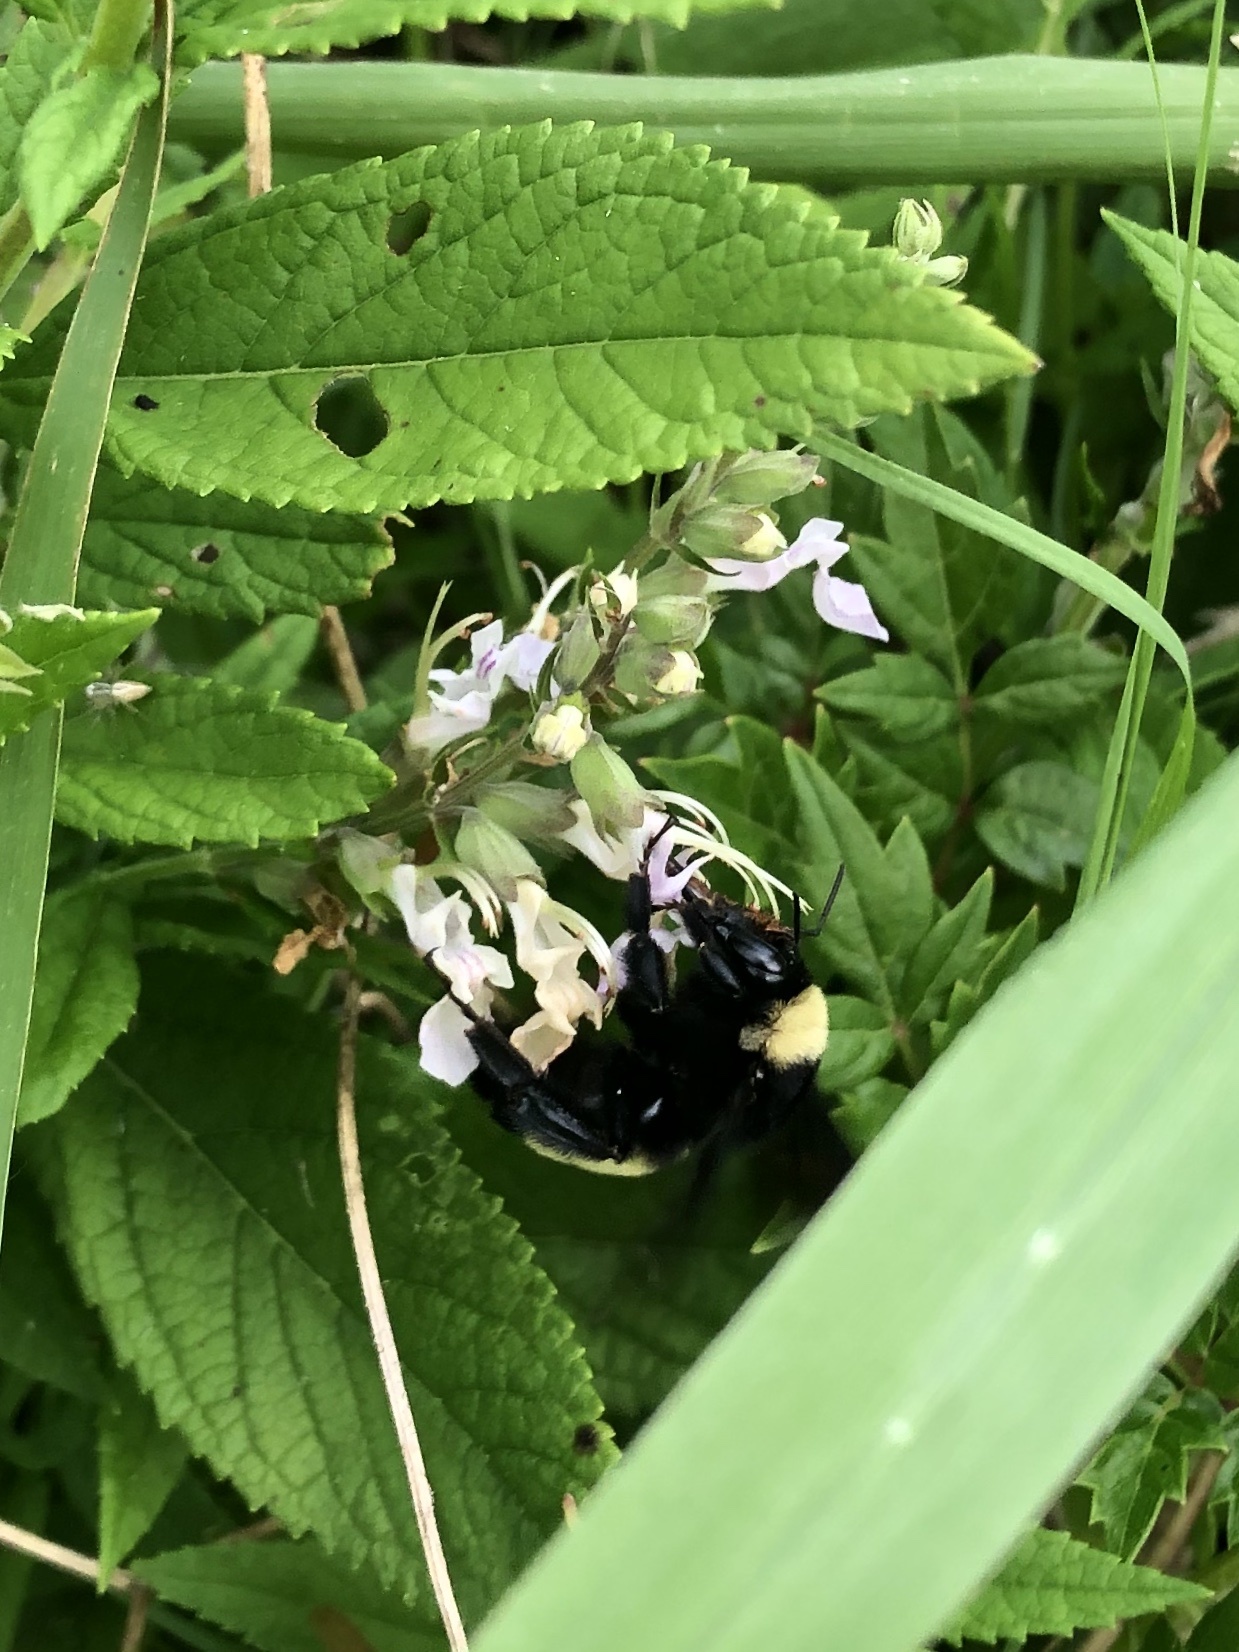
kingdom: Animalia
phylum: Arthropoda
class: Insecta
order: Hymenoptera
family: Apidae
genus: Bombus
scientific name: Bombus pensylvanicus
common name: Bumble bee
